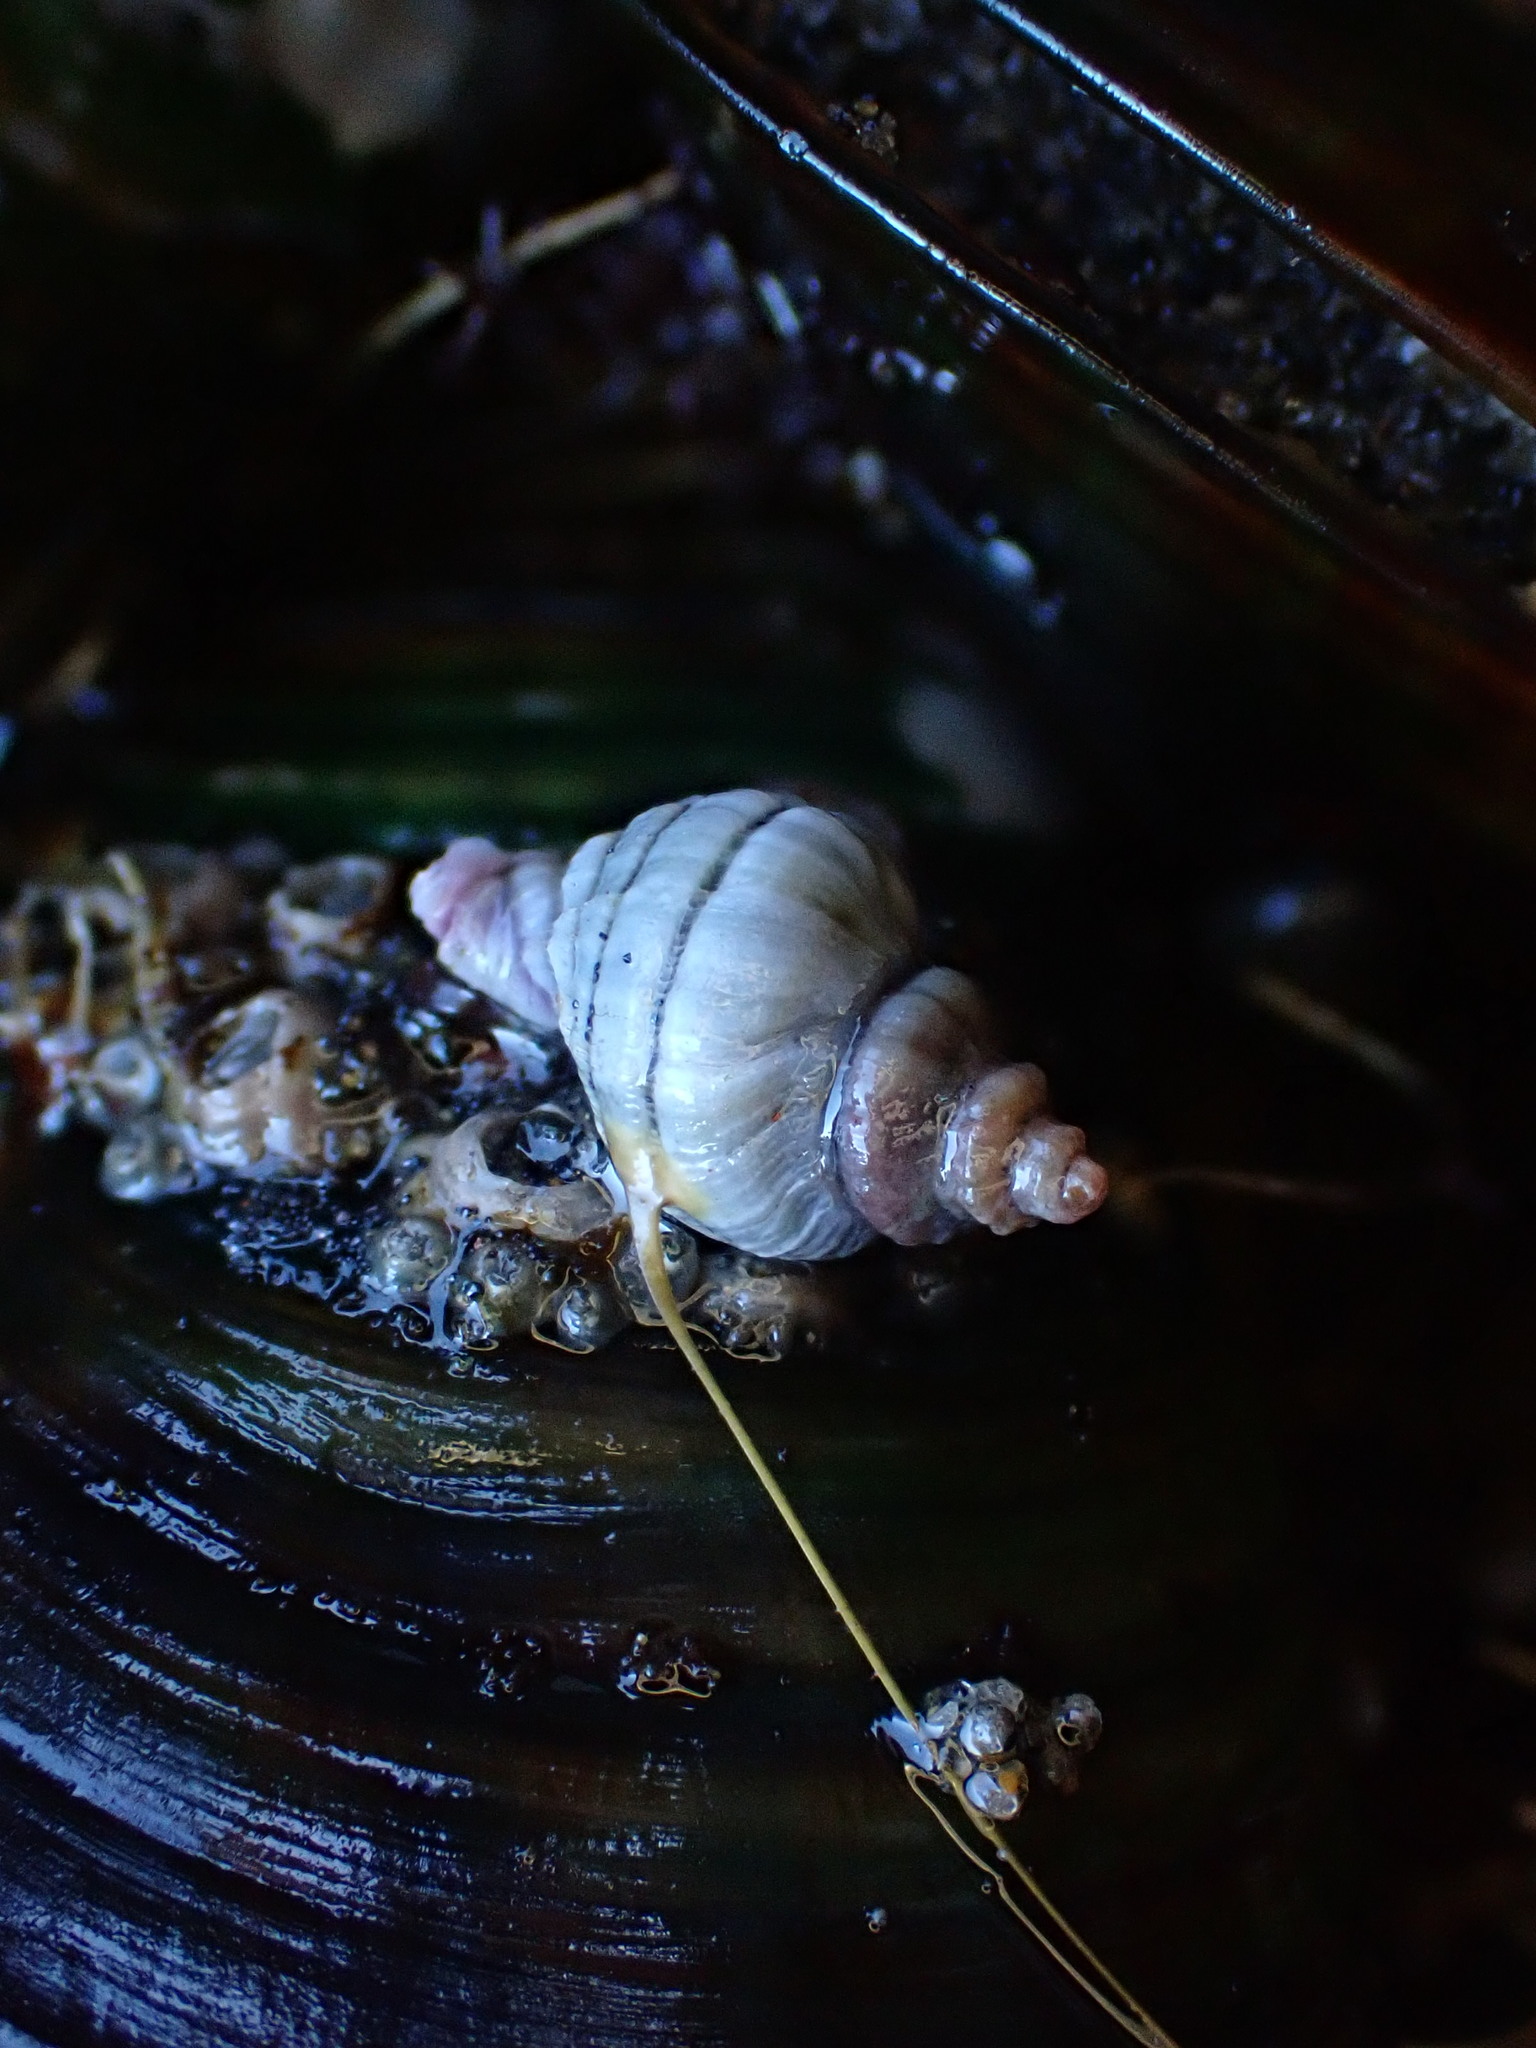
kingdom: Animalia
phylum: Mollusca
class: Gastropoda
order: Neogastropoda
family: Muricidae
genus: Paratrophon
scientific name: Paratrophon cheesemani
